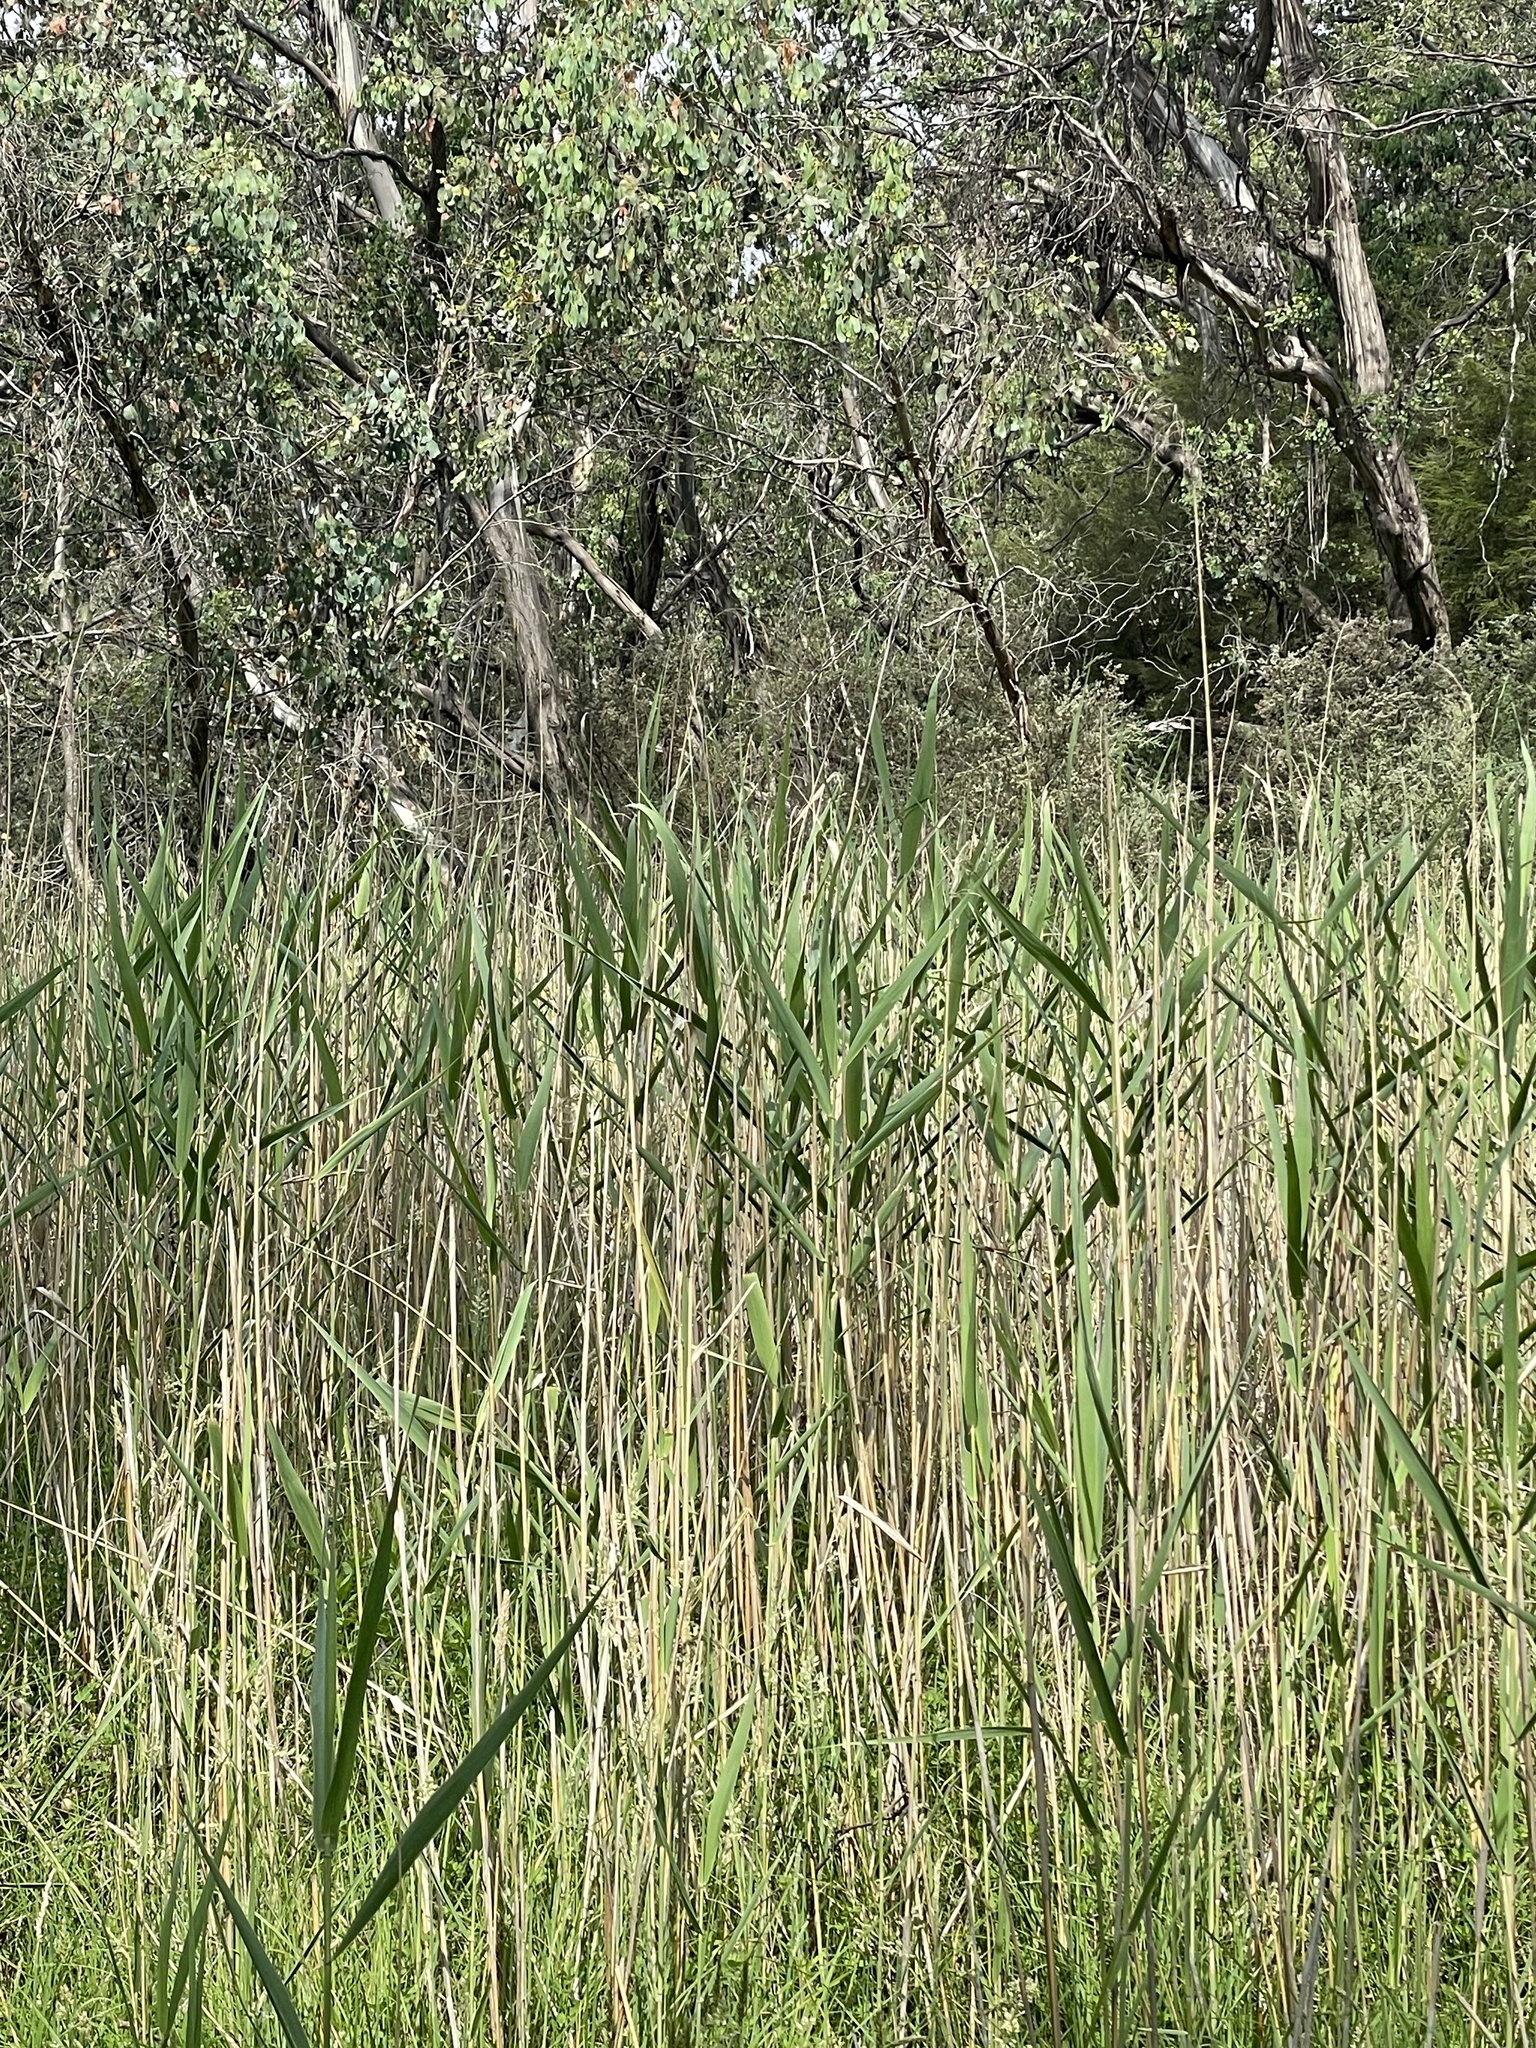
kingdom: Plantae
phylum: Tracheophyta
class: Liliopsida
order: Poales
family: Poaceae
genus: Phragmites
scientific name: Phragmites australis
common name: Common reed
